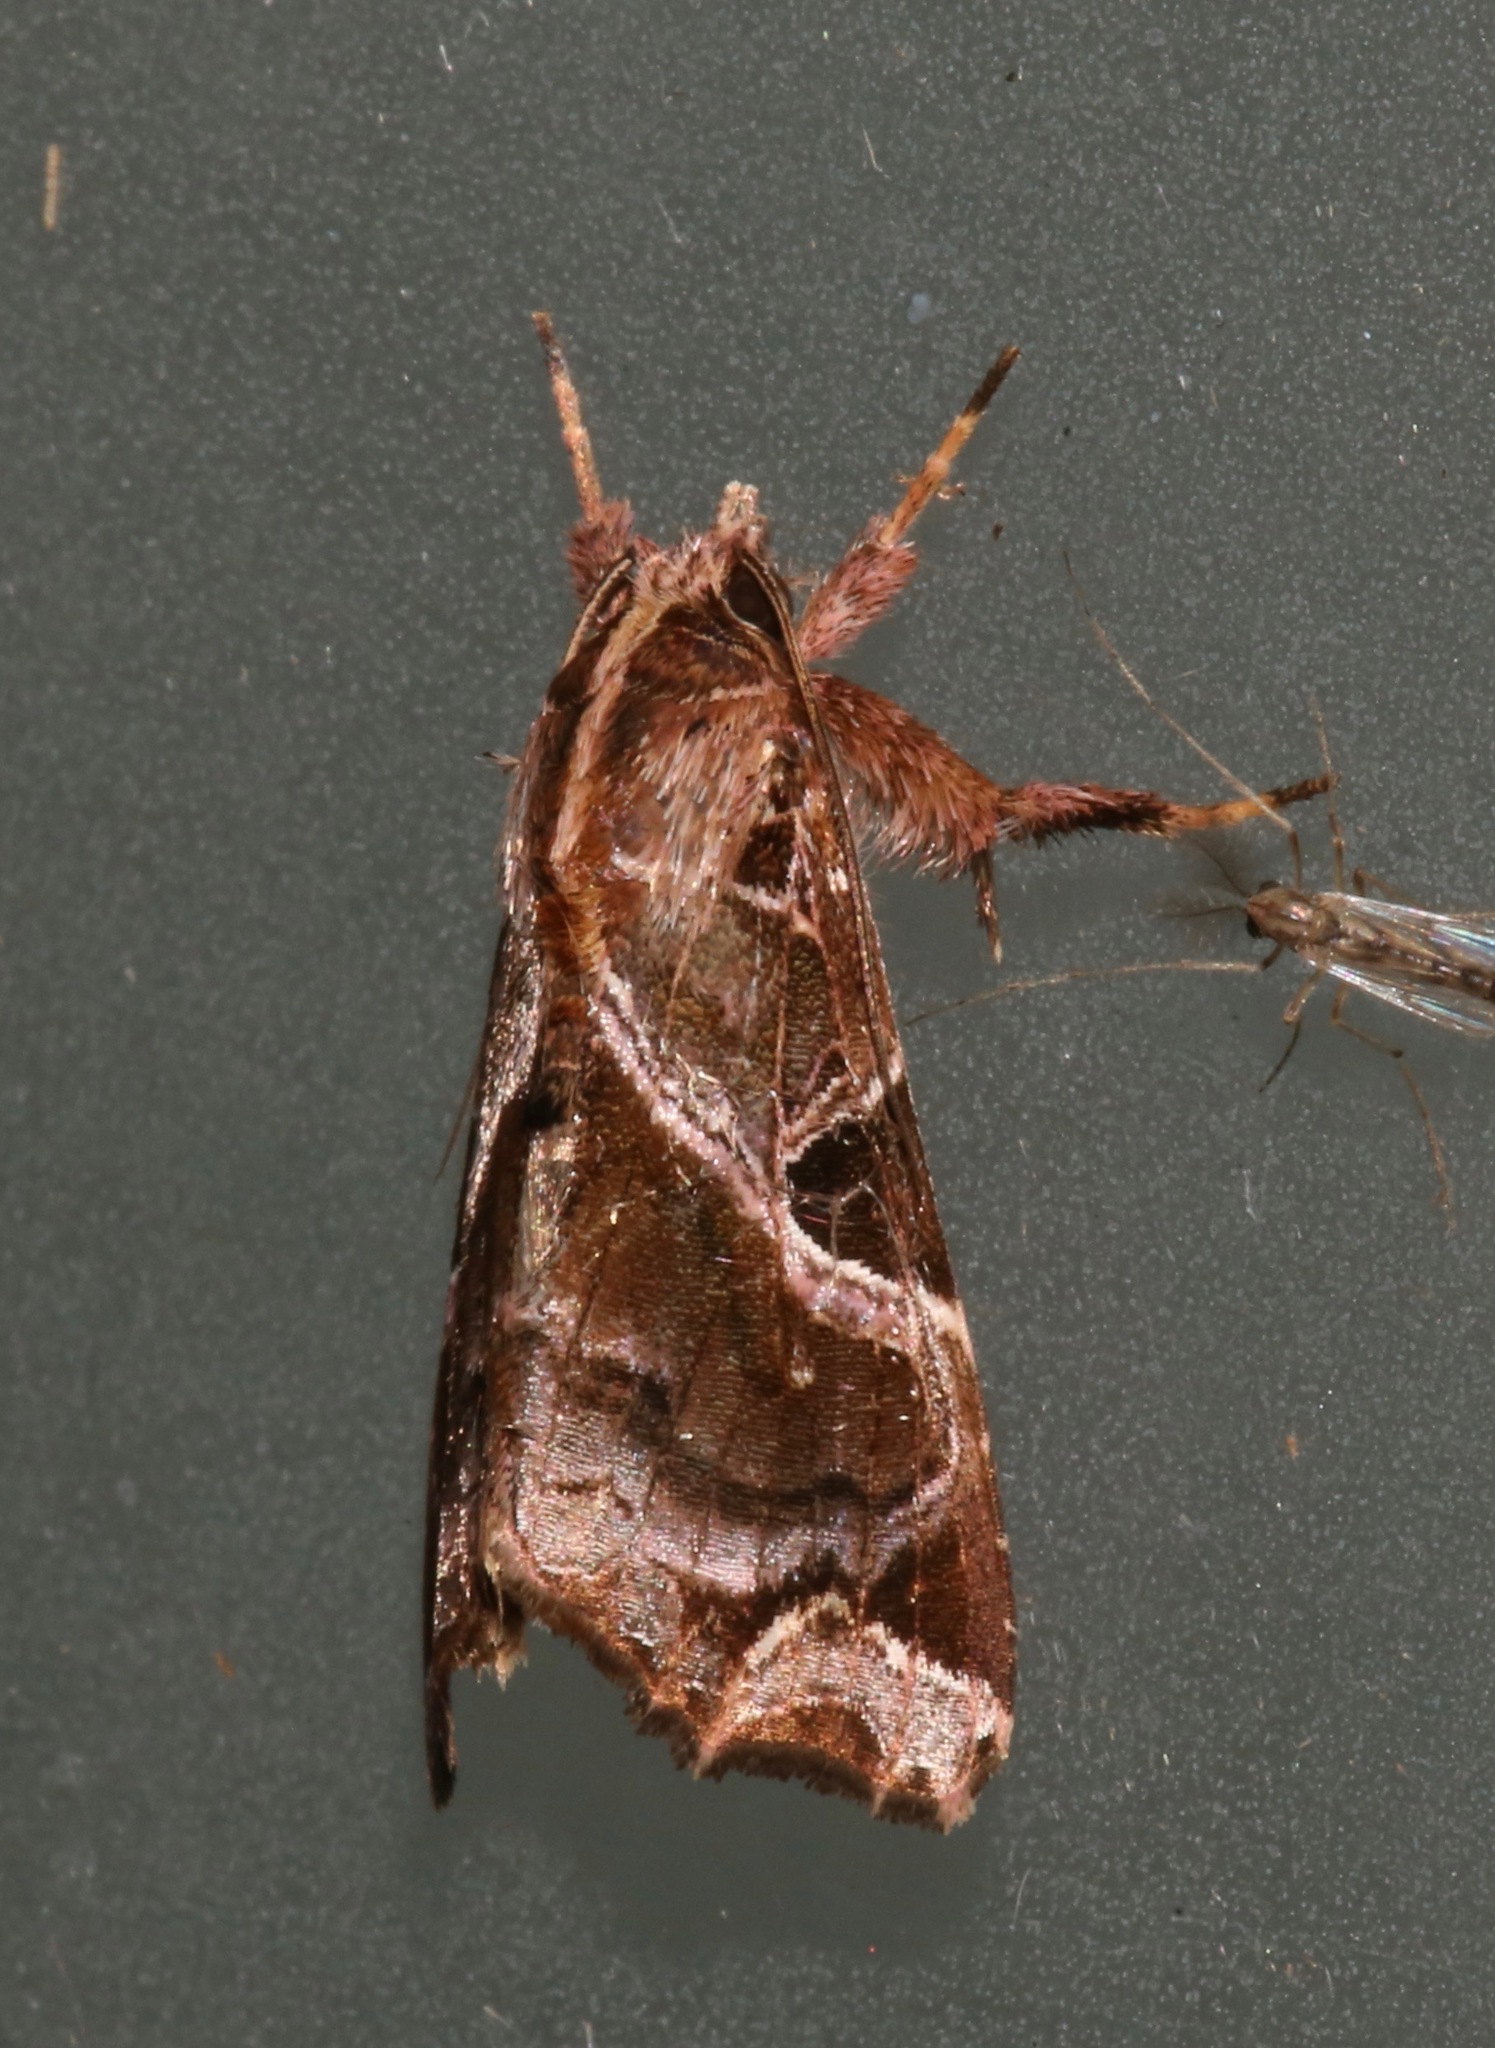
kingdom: Animalia
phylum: Arthropoda
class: Insecta
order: Lepidoptera
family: Noctuidae
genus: Callopistria
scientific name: Callopistria floridensis
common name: Florida fern moth
